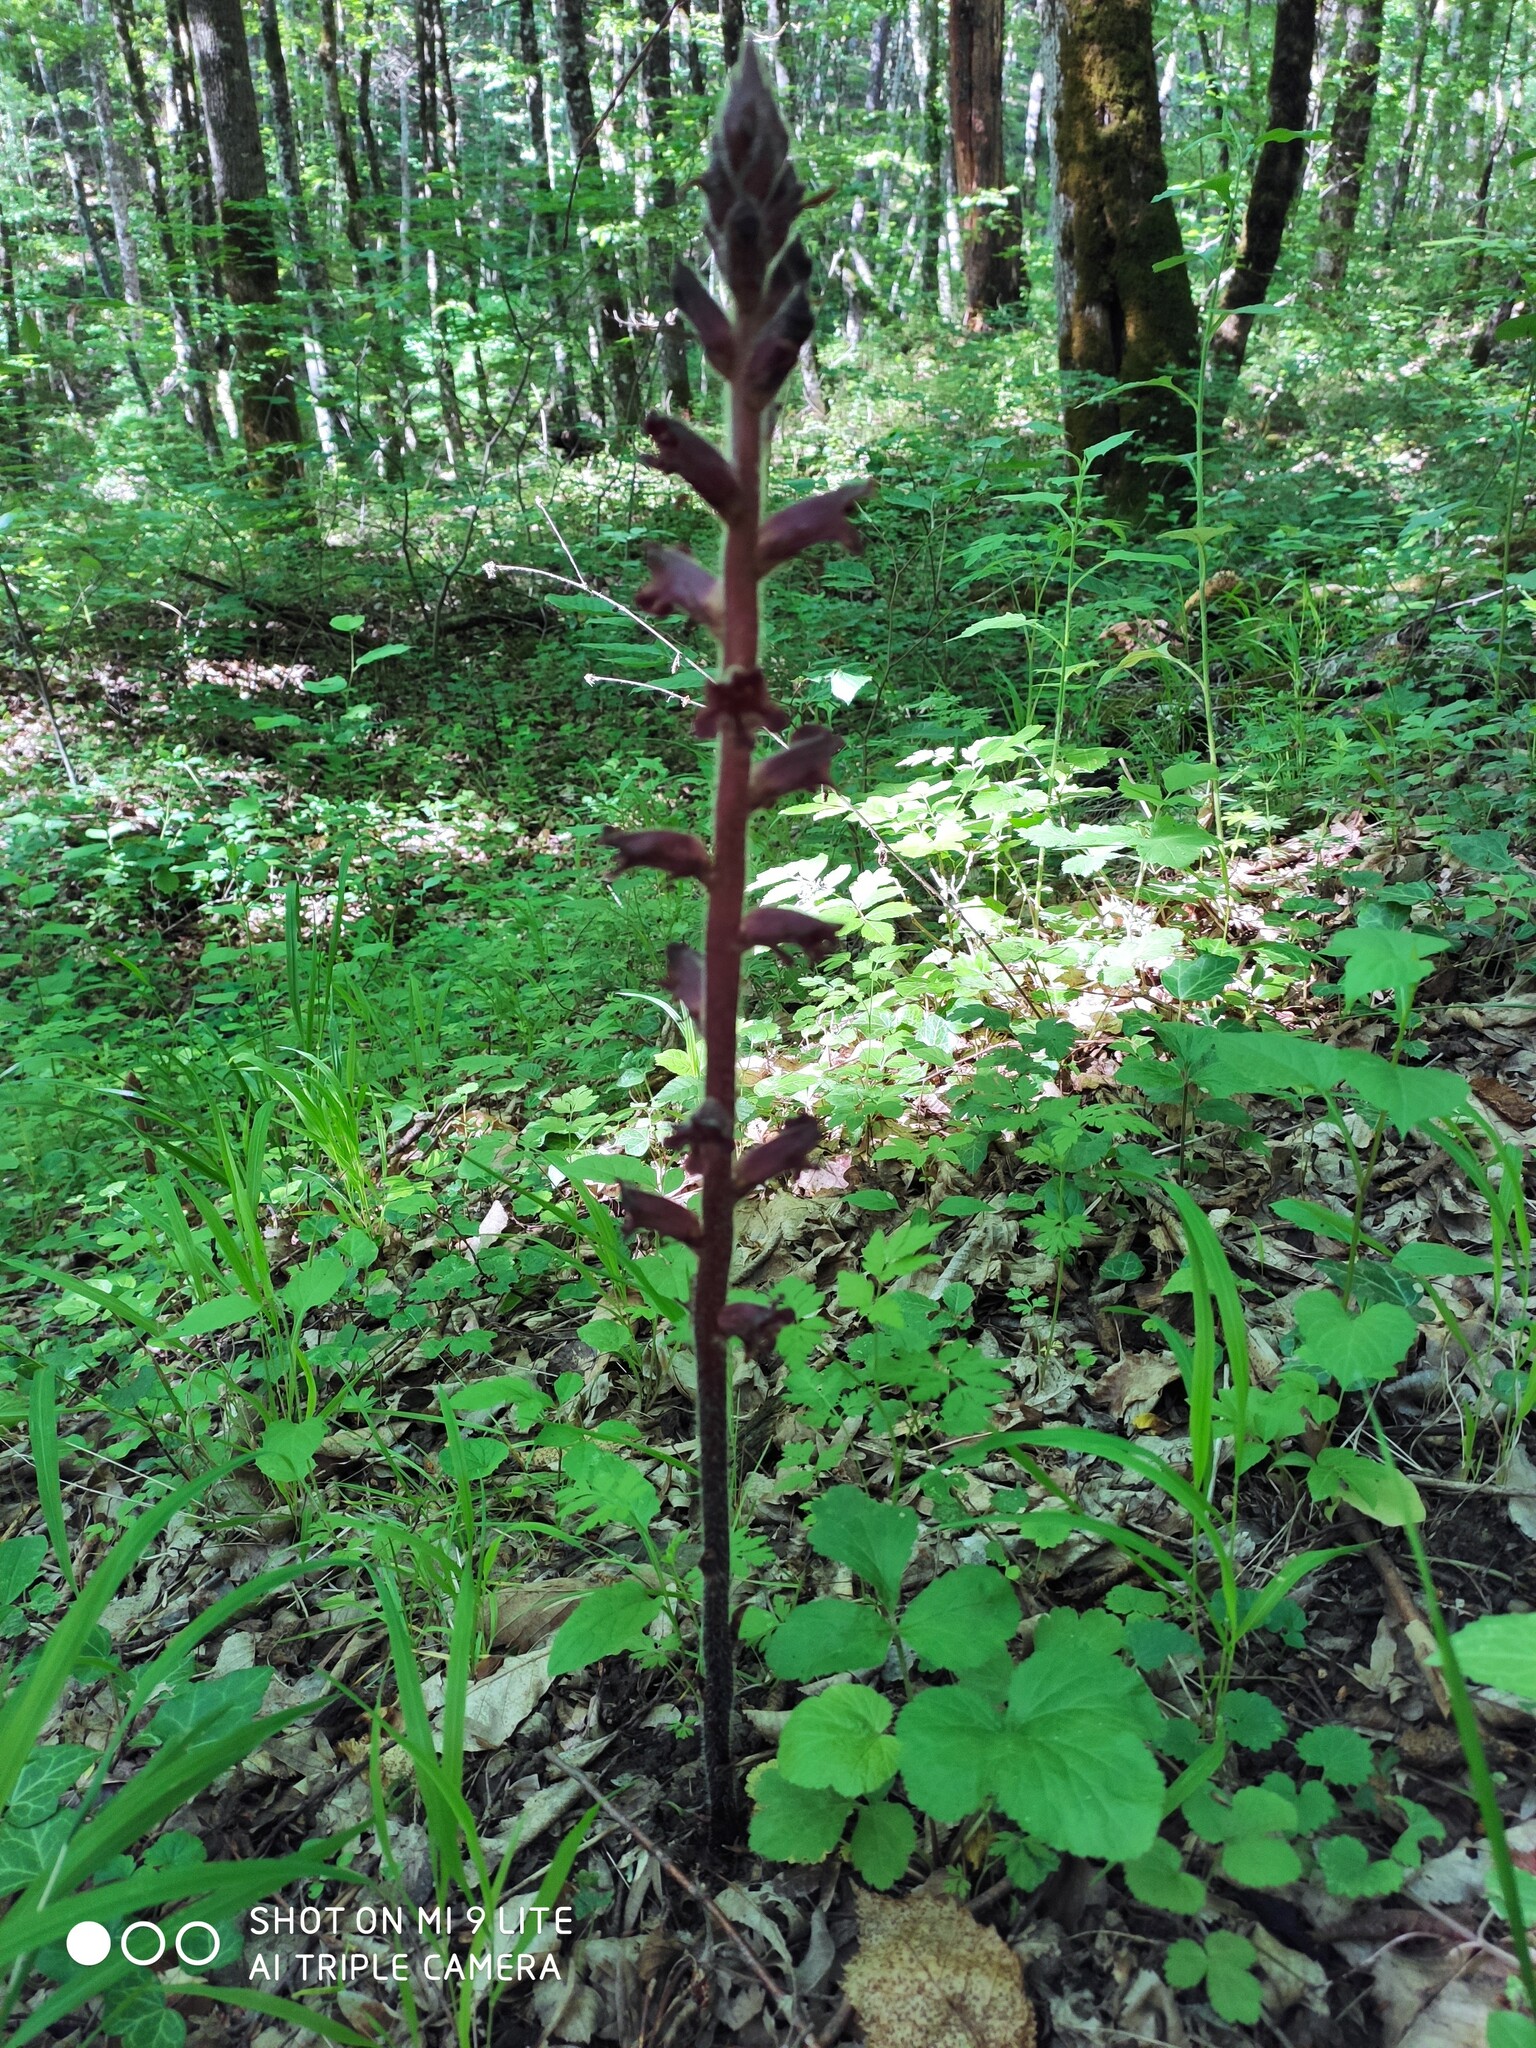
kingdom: Plantae
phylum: Tracheophyta
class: Magnoliopsida
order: Lamiales
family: Orobanchaceae
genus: Orobanche
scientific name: Orobanche laxissima
